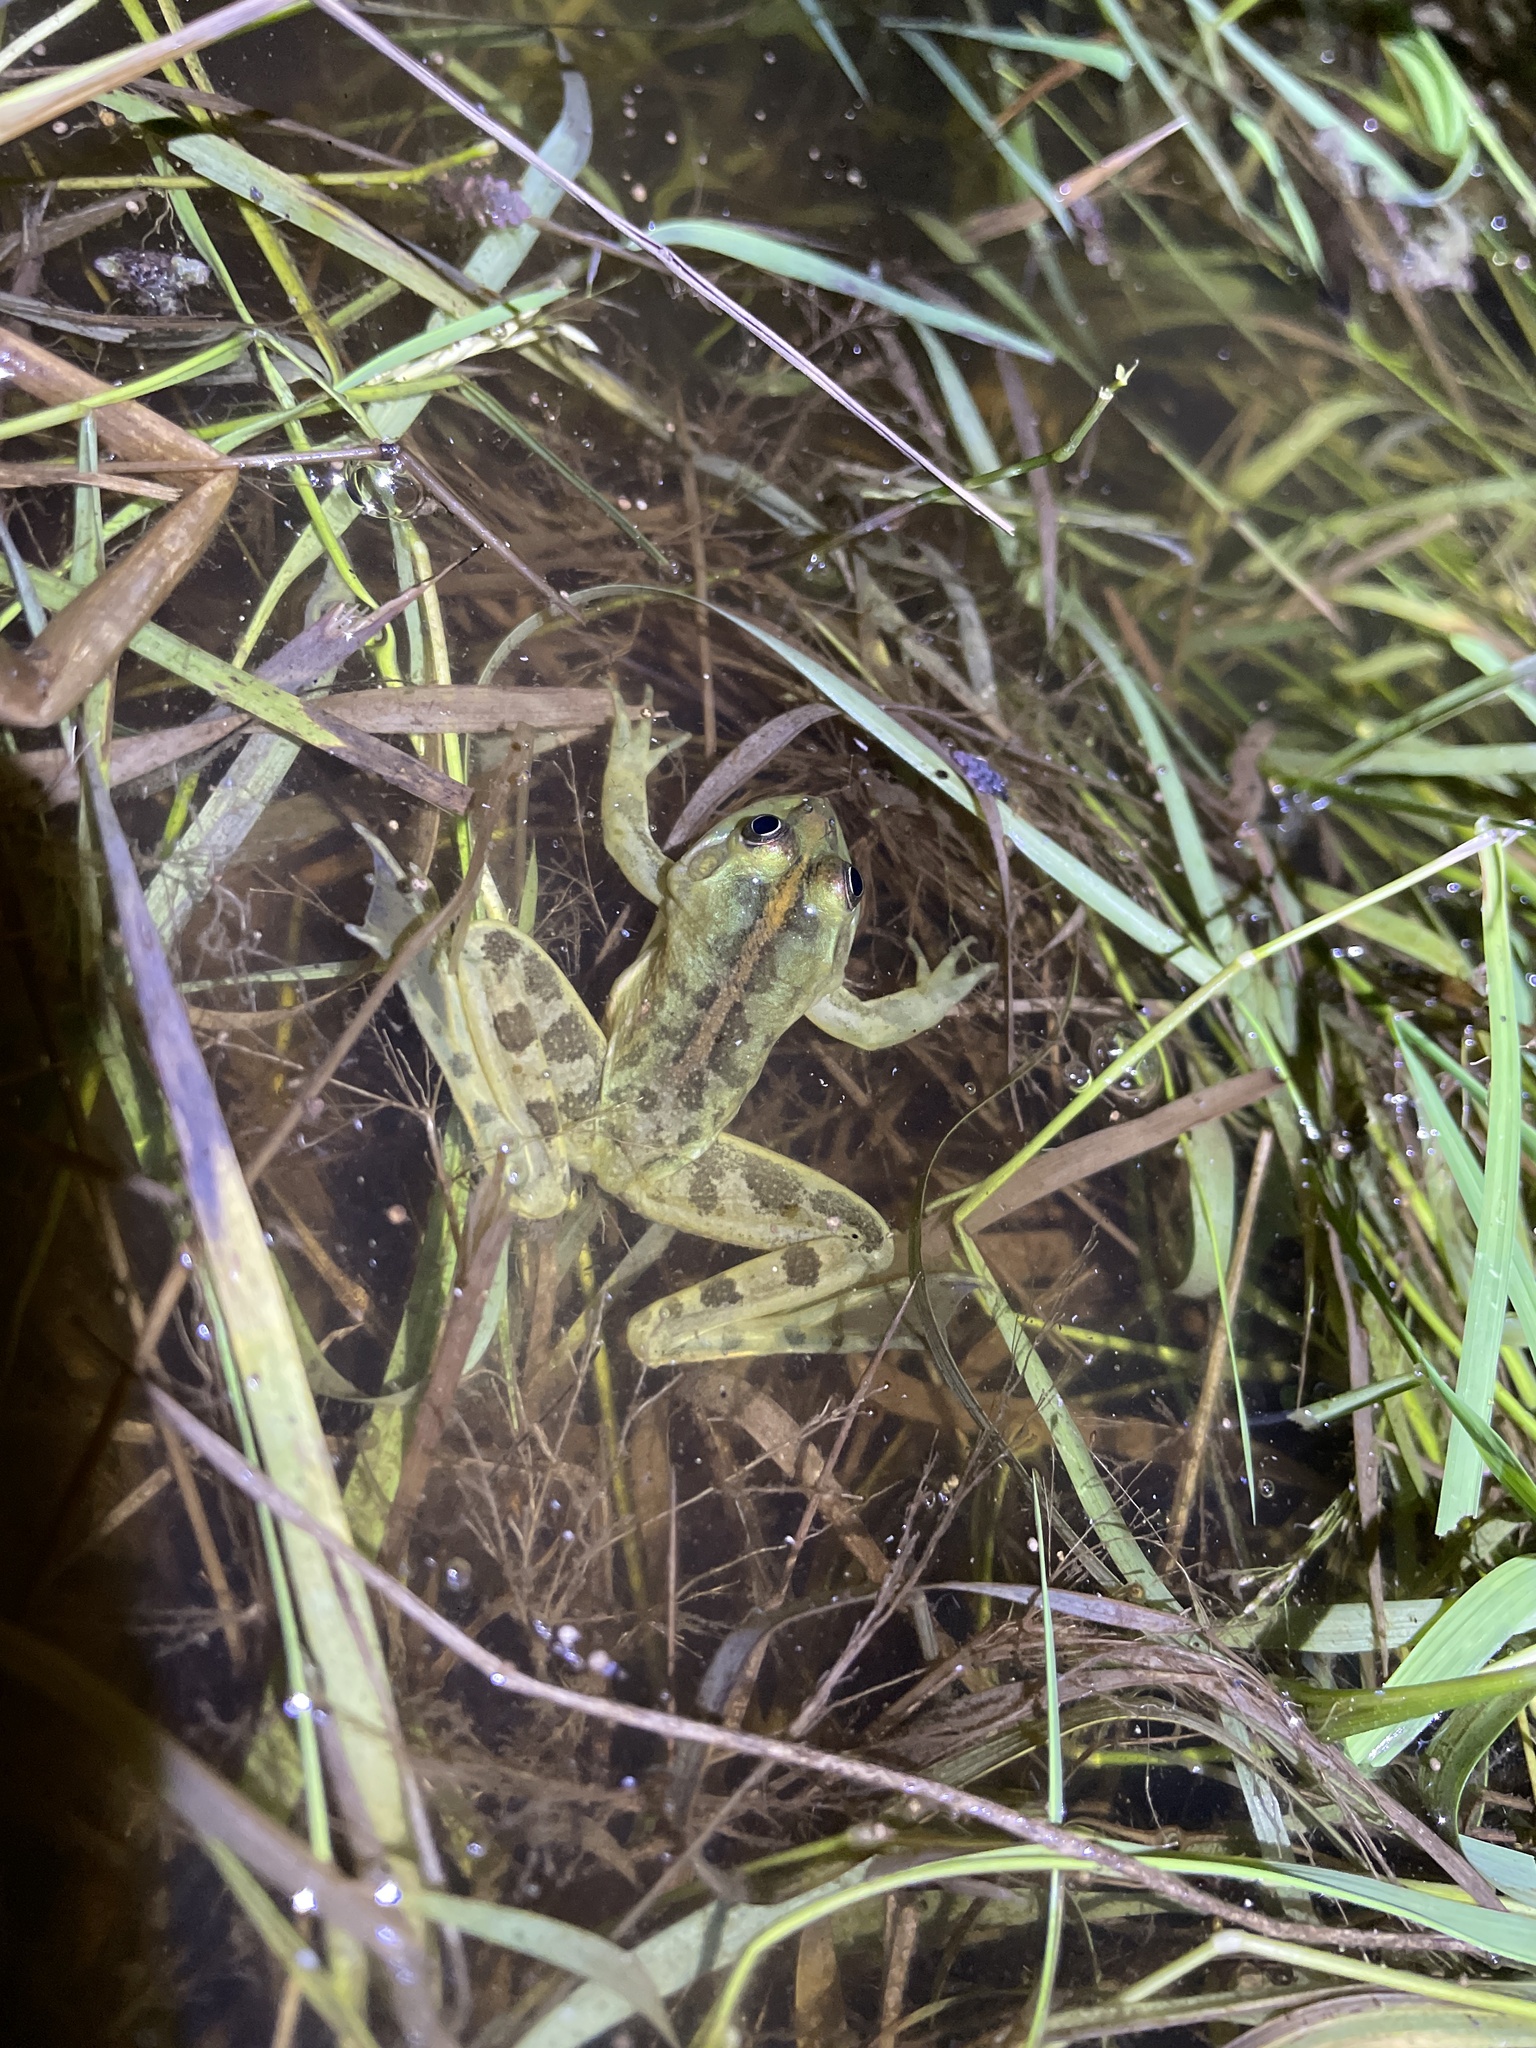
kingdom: Animalia
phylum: Chordata
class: Amphibia
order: Anura
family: Hylidae
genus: Pseudis
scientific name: Pseudis minuta
